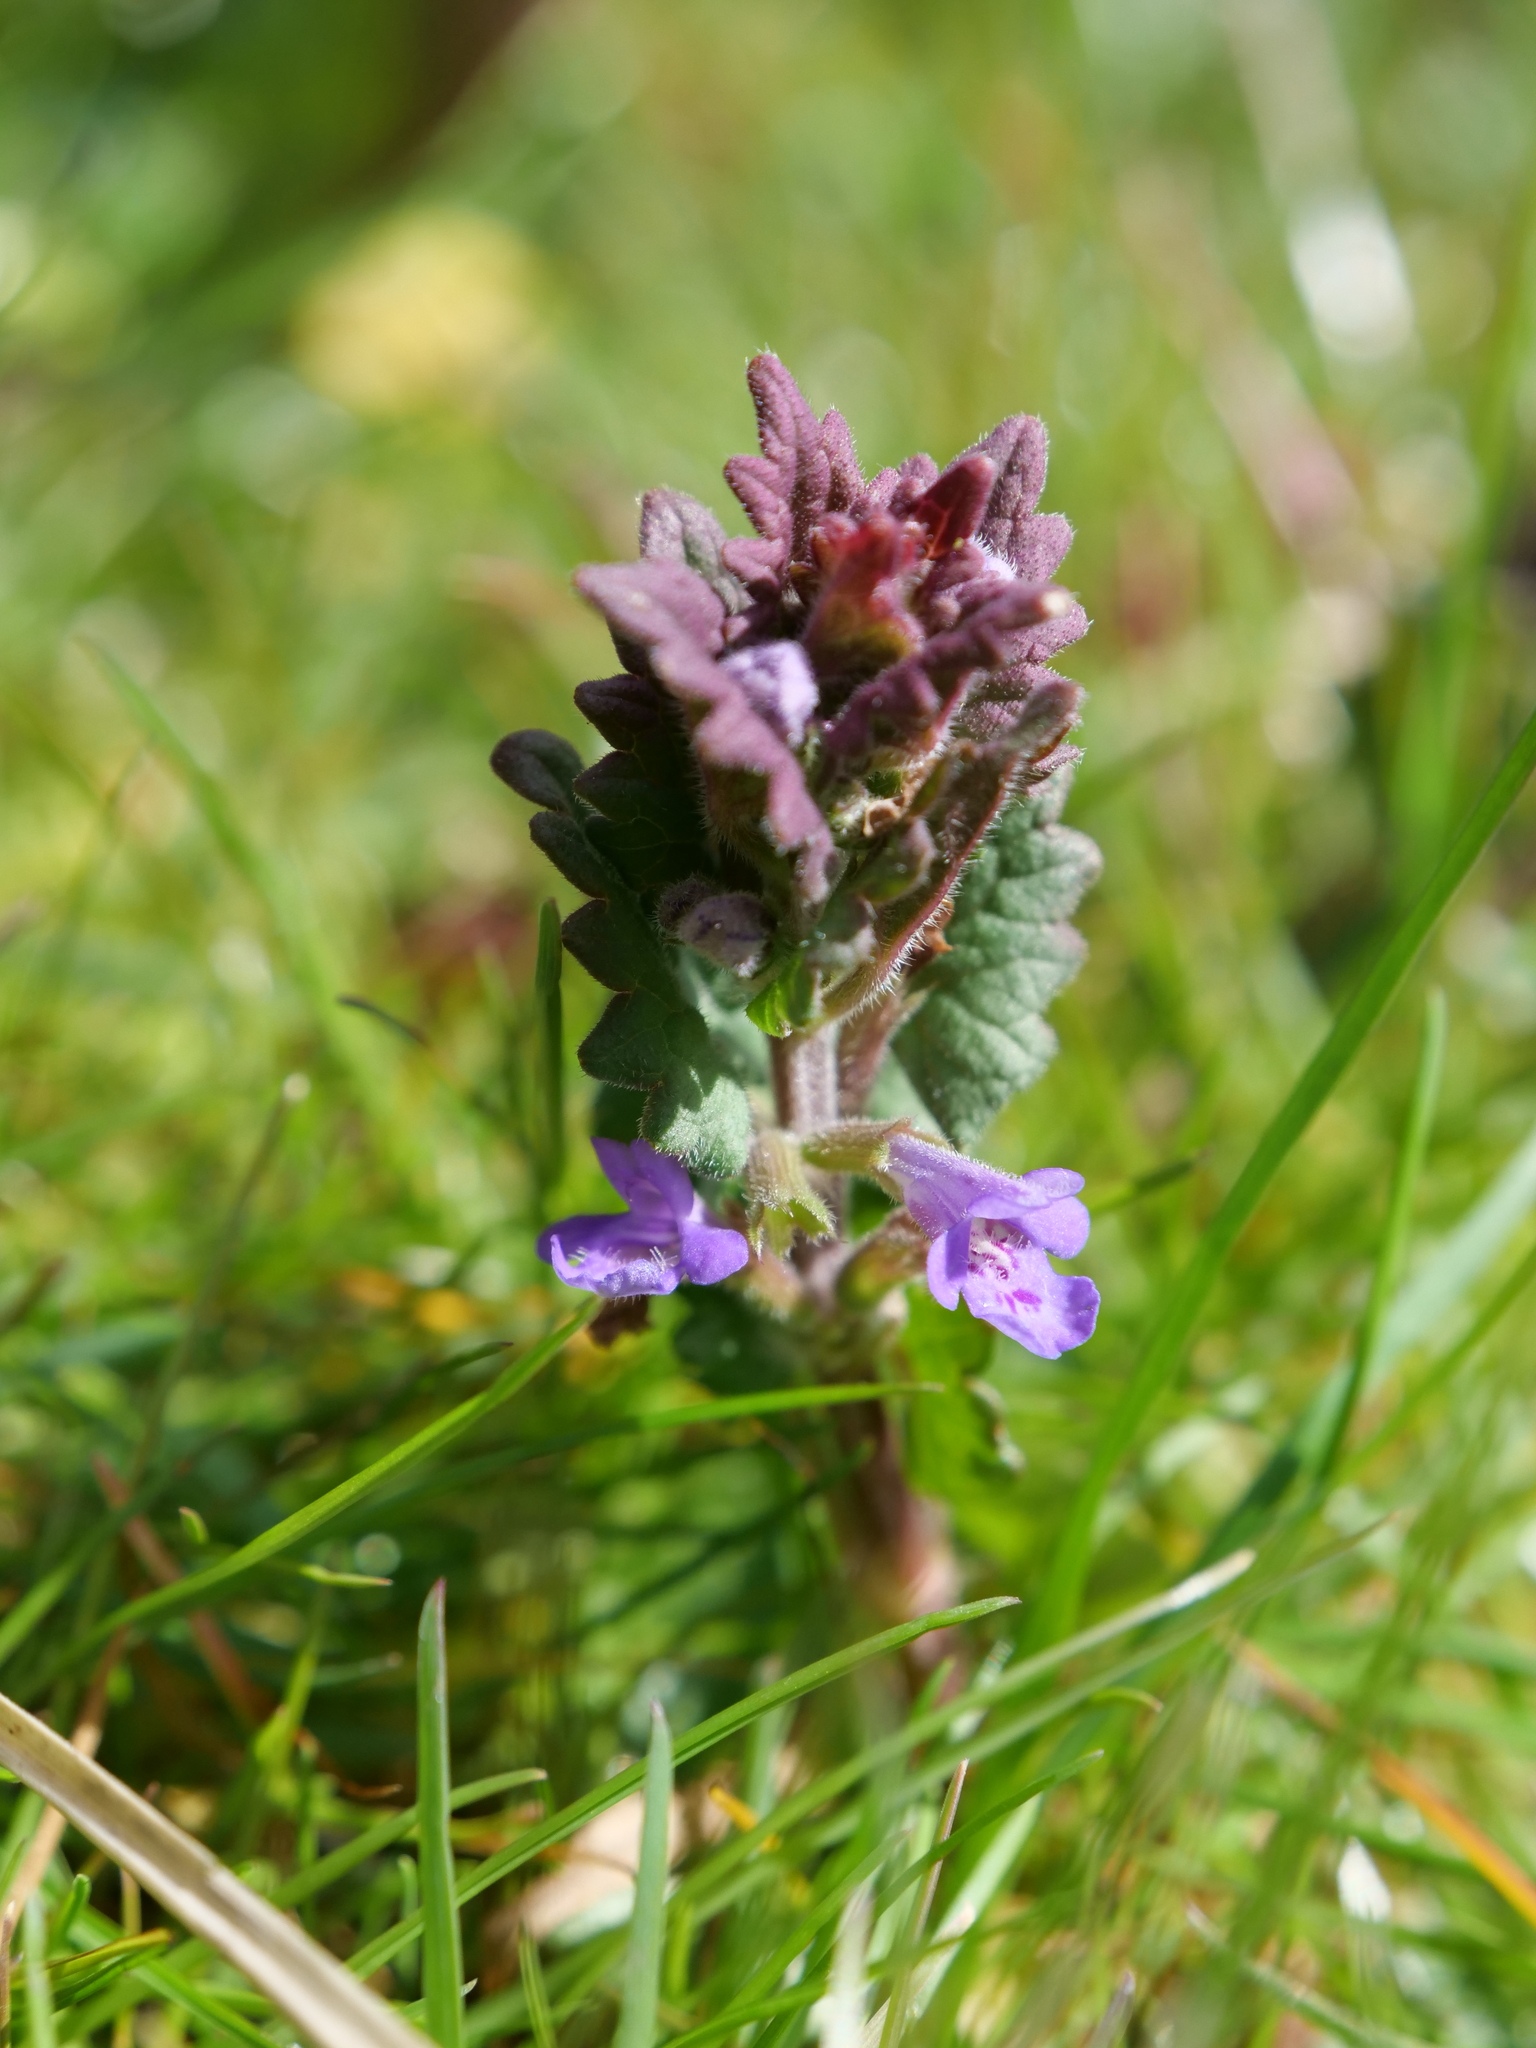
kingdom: Plantae
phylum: Tracheophyta
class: Magnoliopsida
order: Lamiales
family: Lamiaceae
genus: Glechoma
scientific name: Glechoma hederacea
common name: Ground ivy
